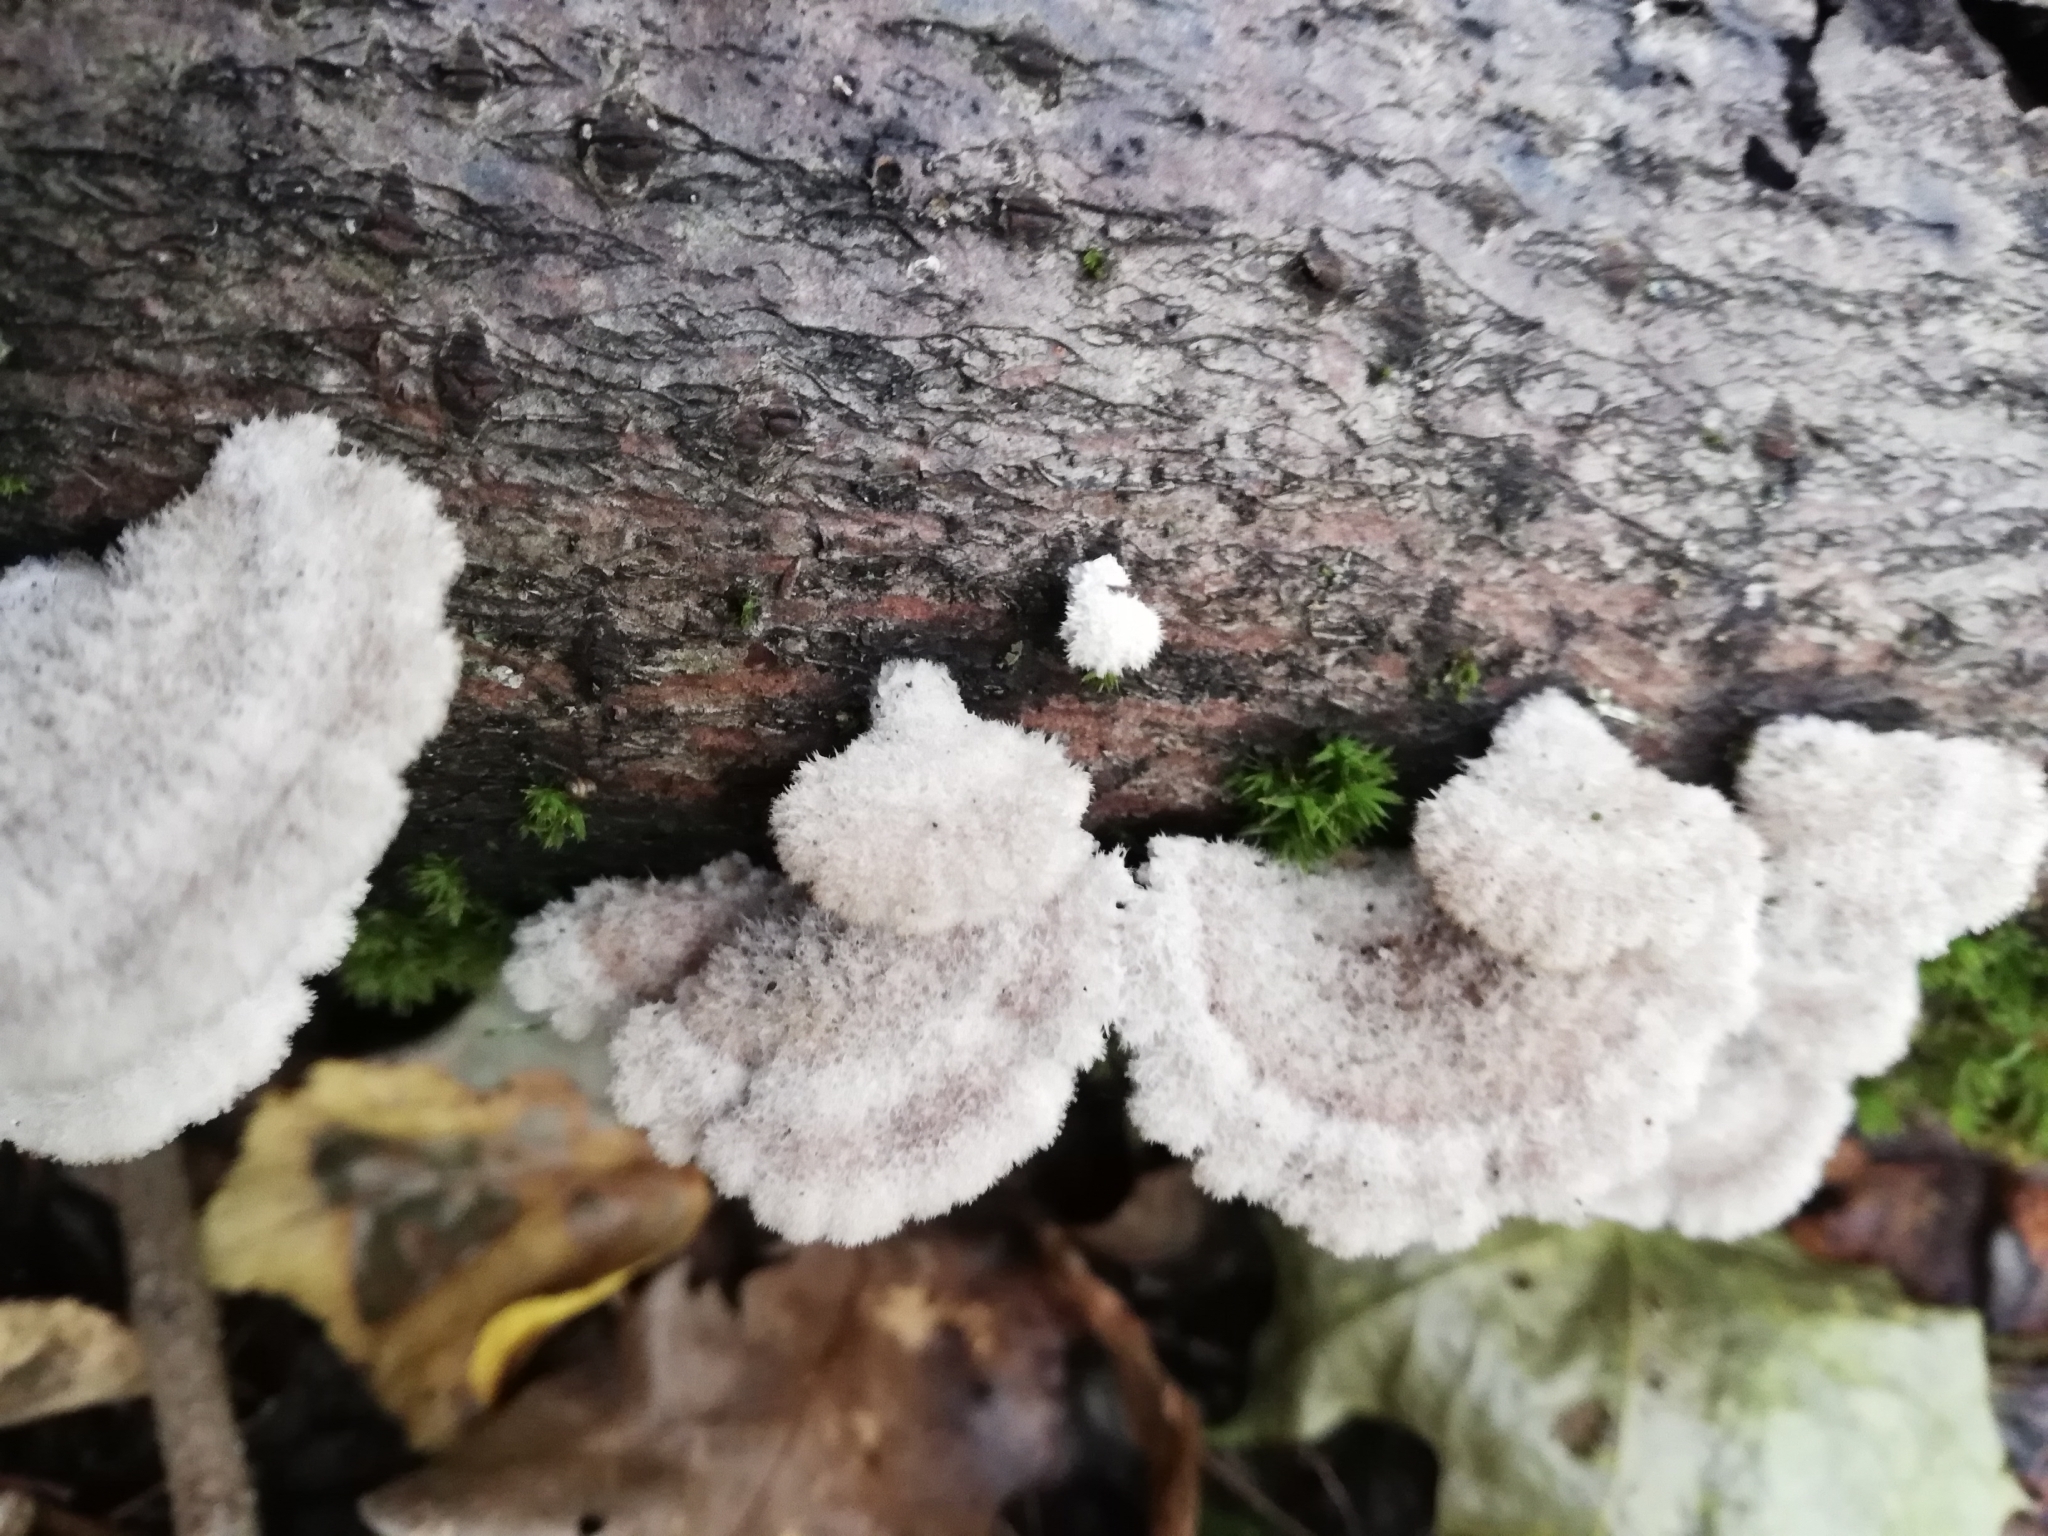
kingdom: Fungi
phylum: Basidiomycota
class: Agaricomycetes
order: Agaricales
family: Schizophyllaceae
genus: Schizophyllum
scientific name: Schizophyllum commune
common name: Common porecrust
